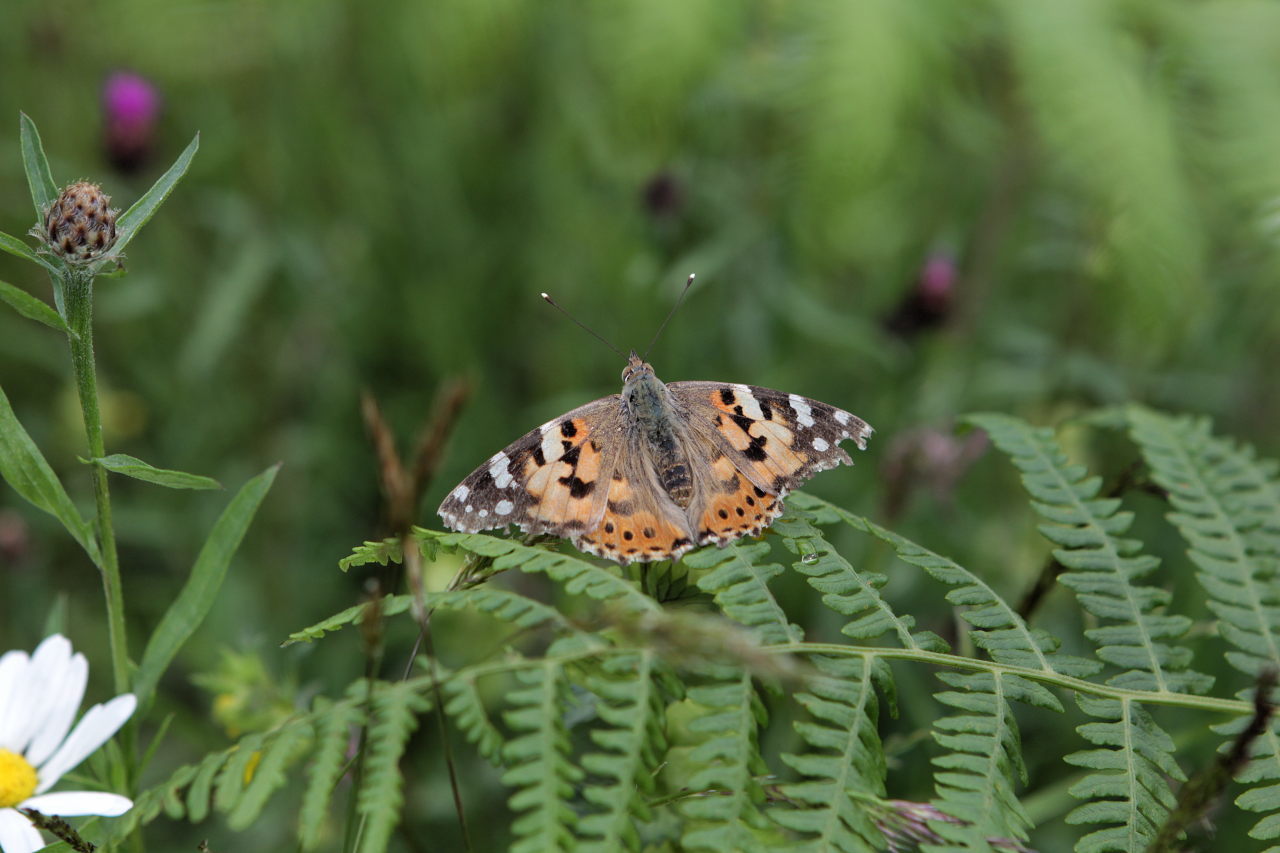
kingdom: Animalia
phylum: Arthropoda
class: Insecta
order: Lepidoptera
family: Nymphalidae
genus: Vanessa
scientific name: Vanessa cardui
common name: Painted lady
